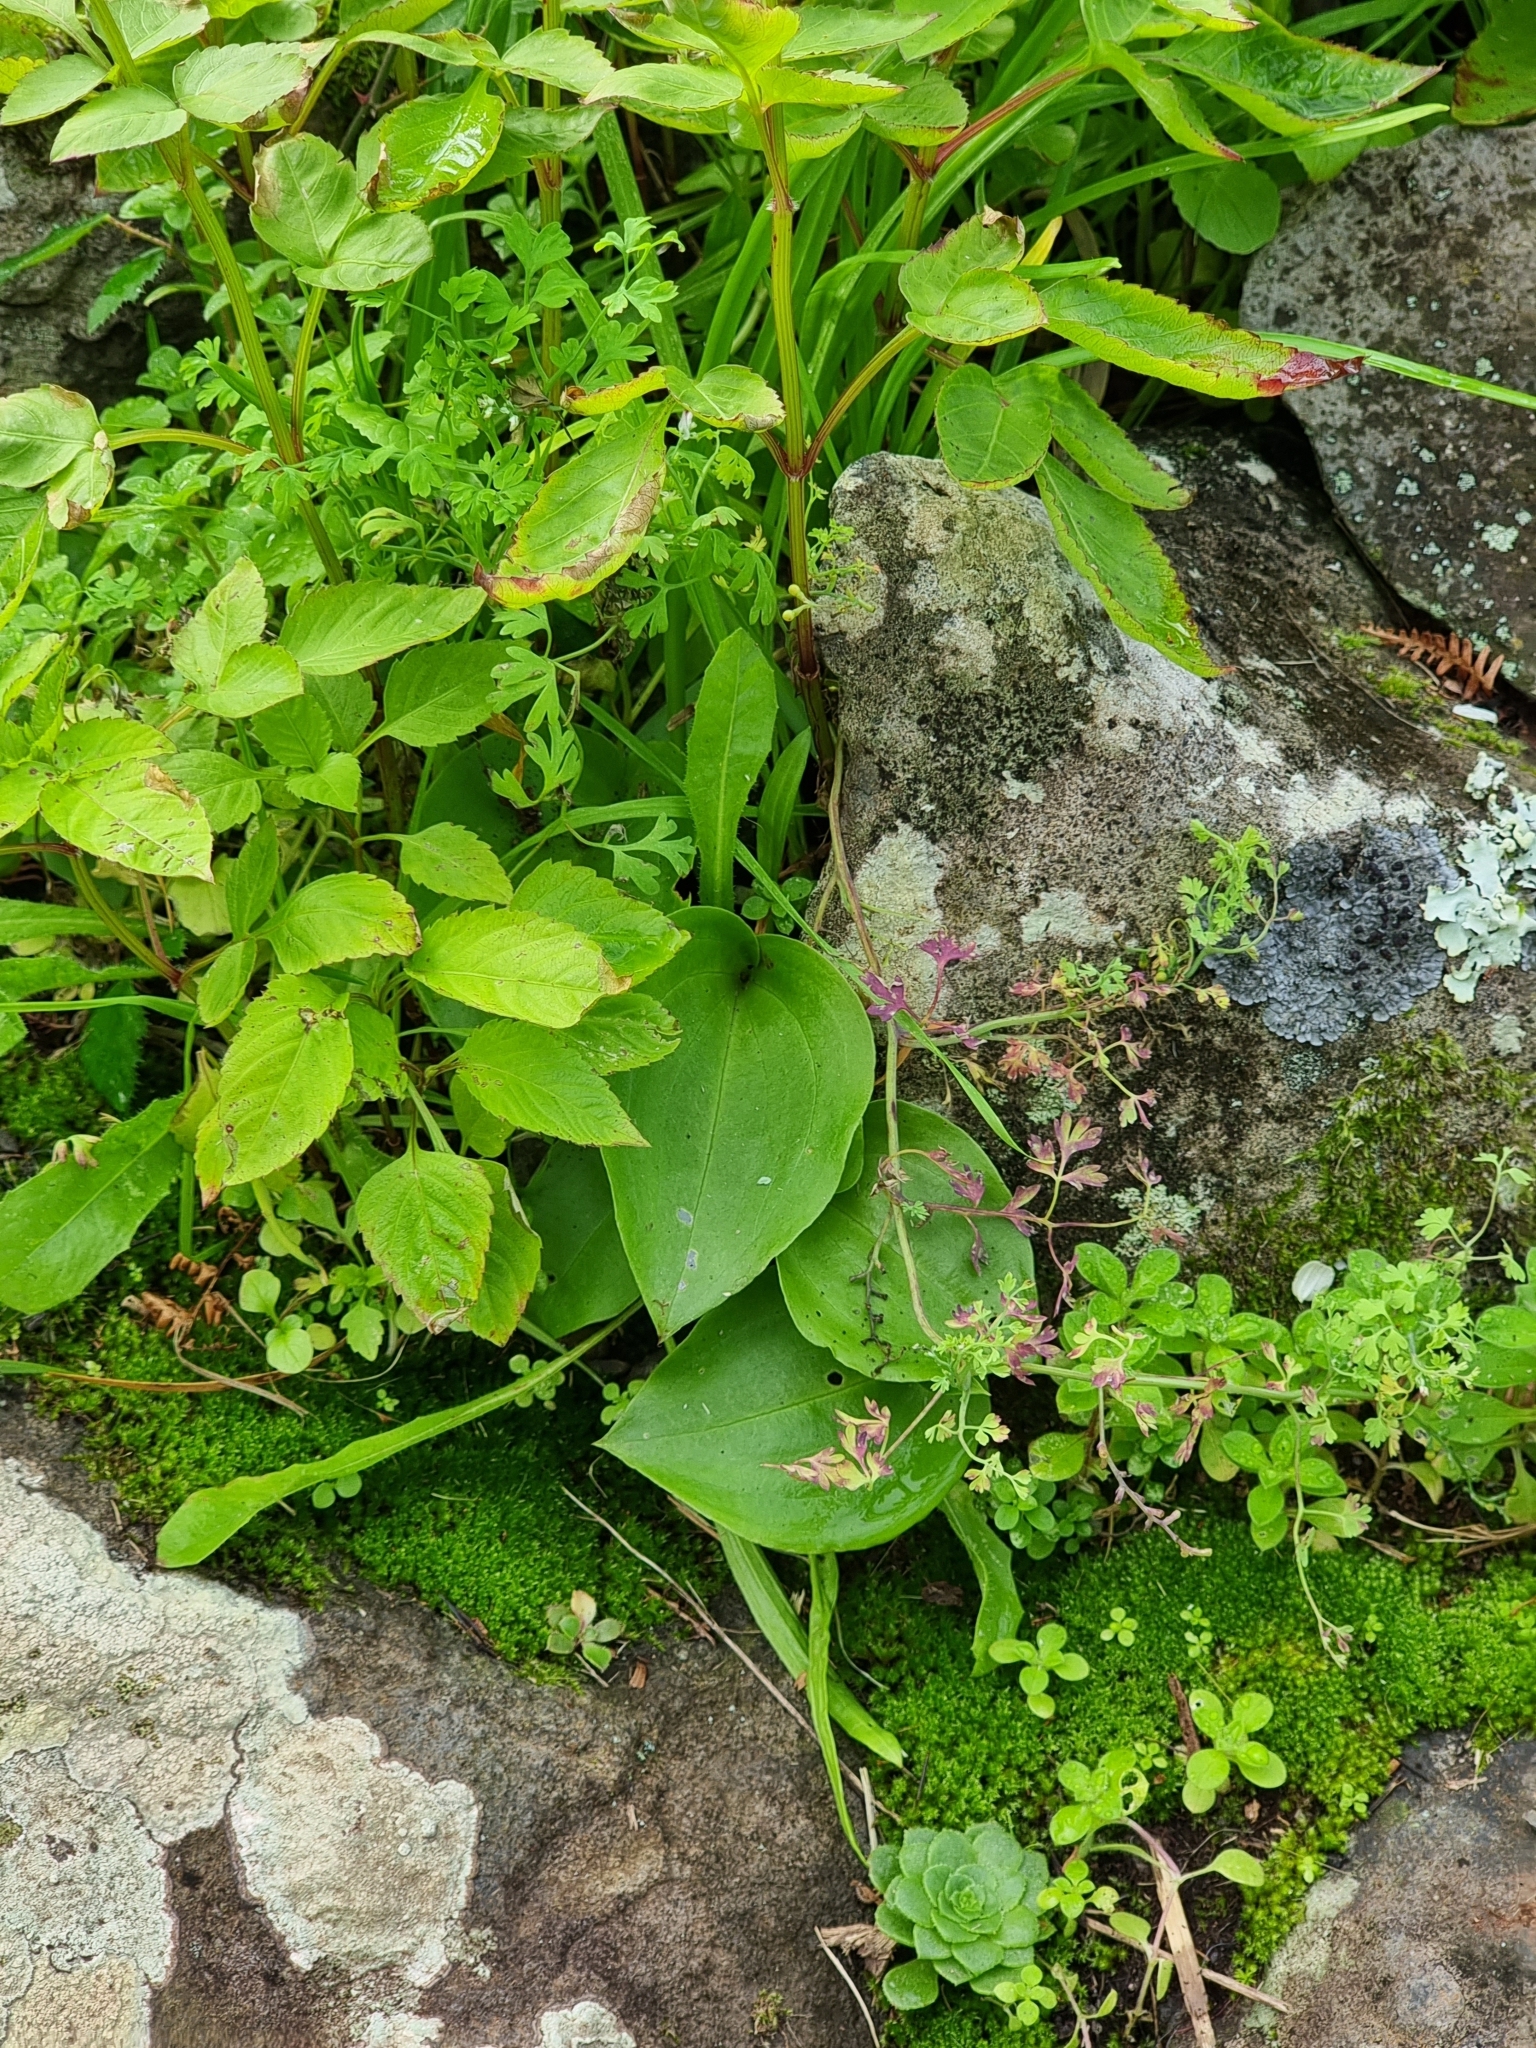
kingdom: Plantae
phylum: Tracheophyta
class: Liliopsida
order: Asparagales
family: Orchidaceae
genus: Gennaria
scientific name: Gennaria diphylla
